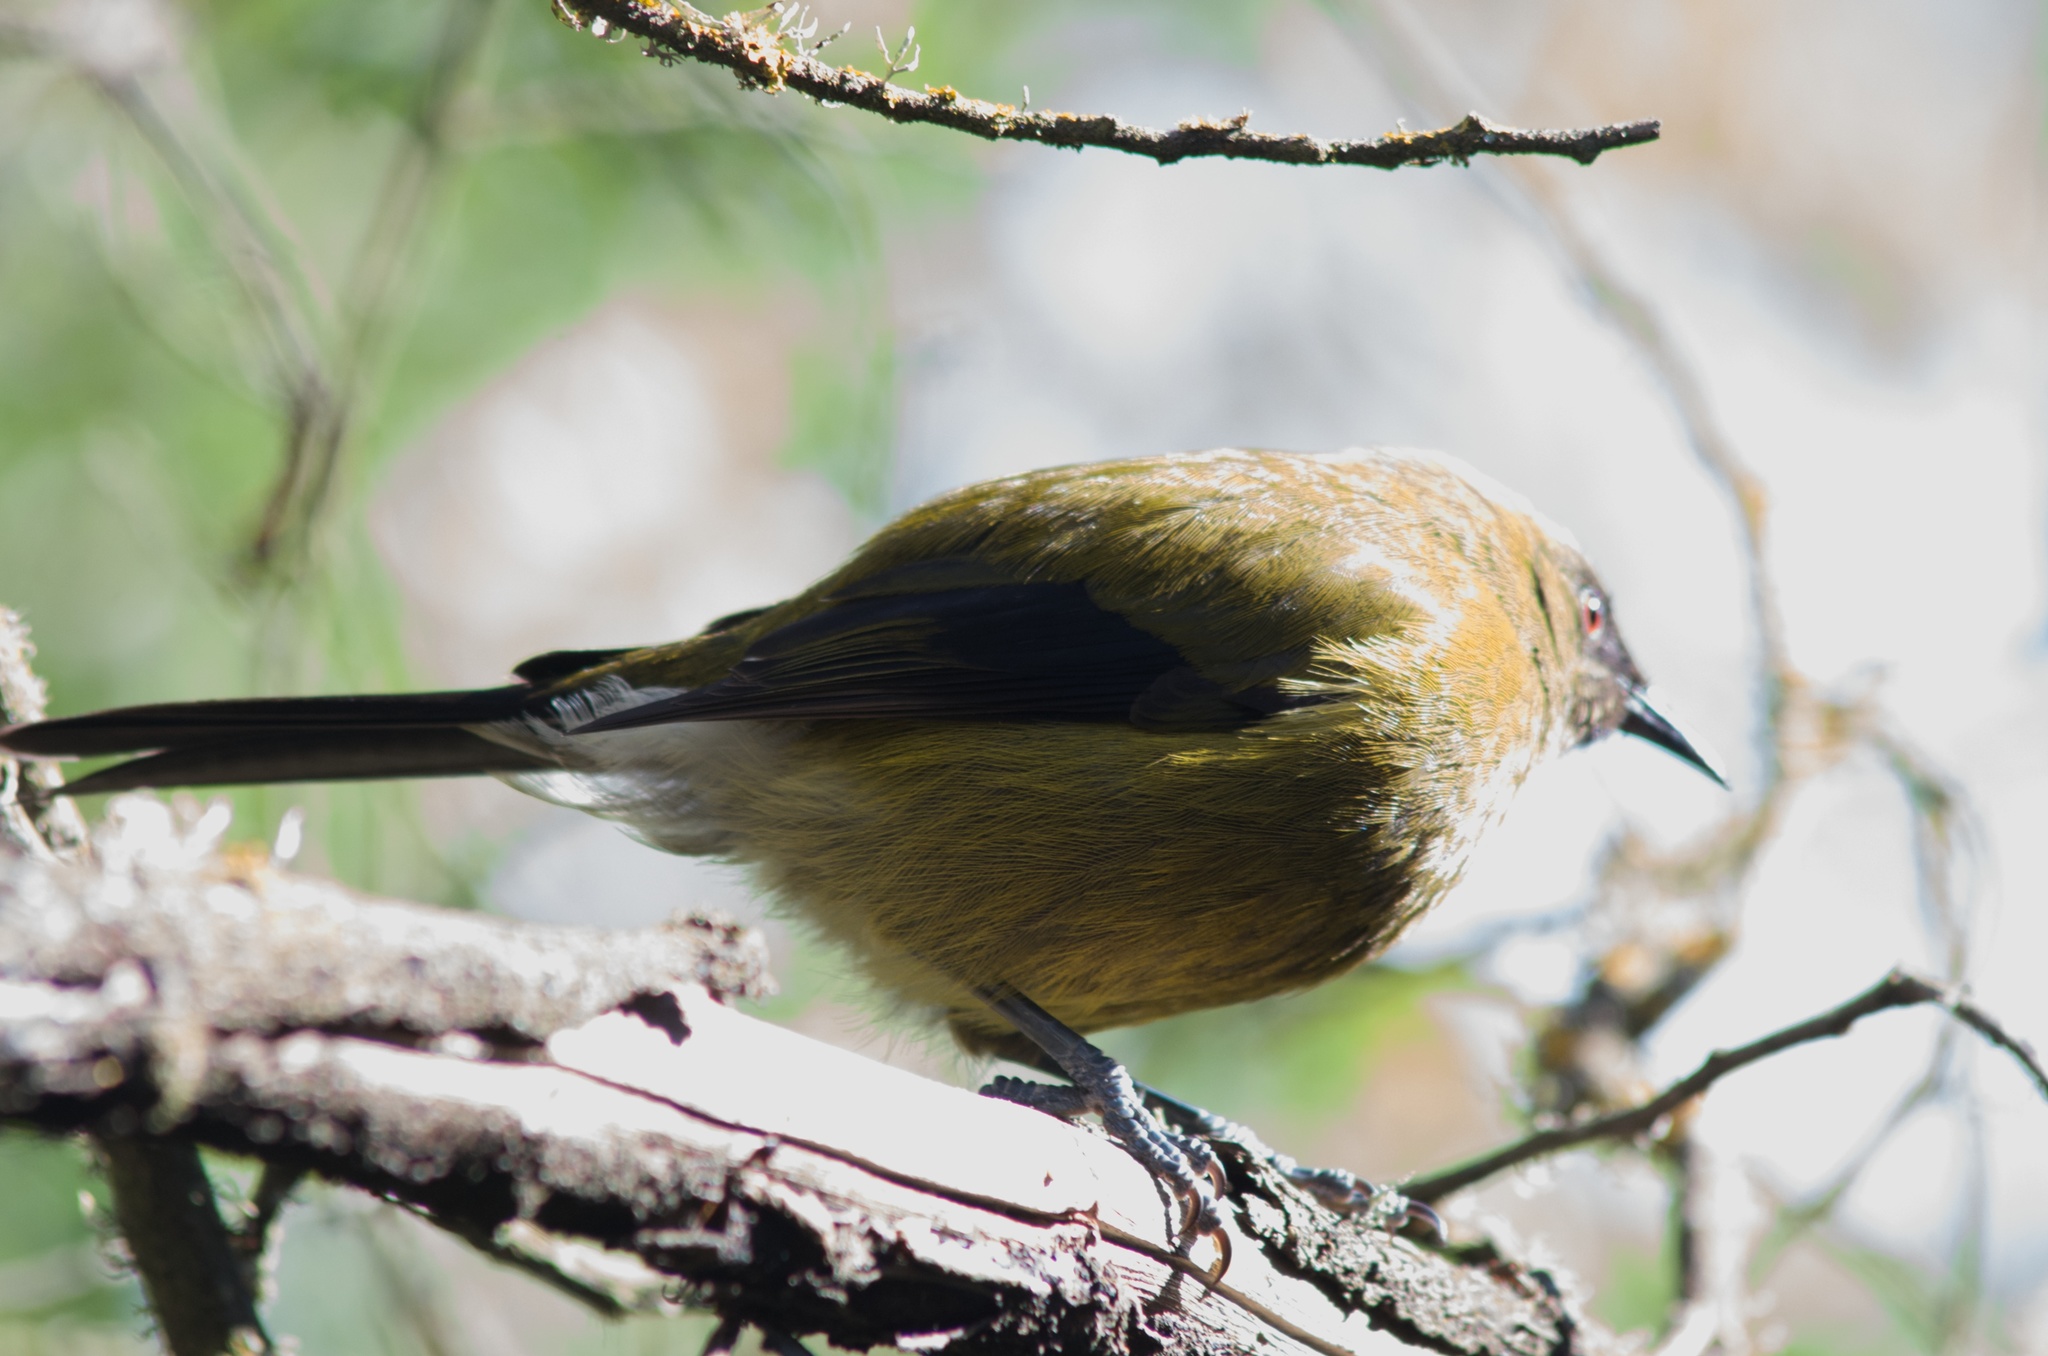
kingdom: Animalia
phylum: Chordata
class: Aves
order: Passeriformes
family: Meliphagidae
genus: Anthornis
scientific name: Anthornis melanura
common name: New zealand bellbird
